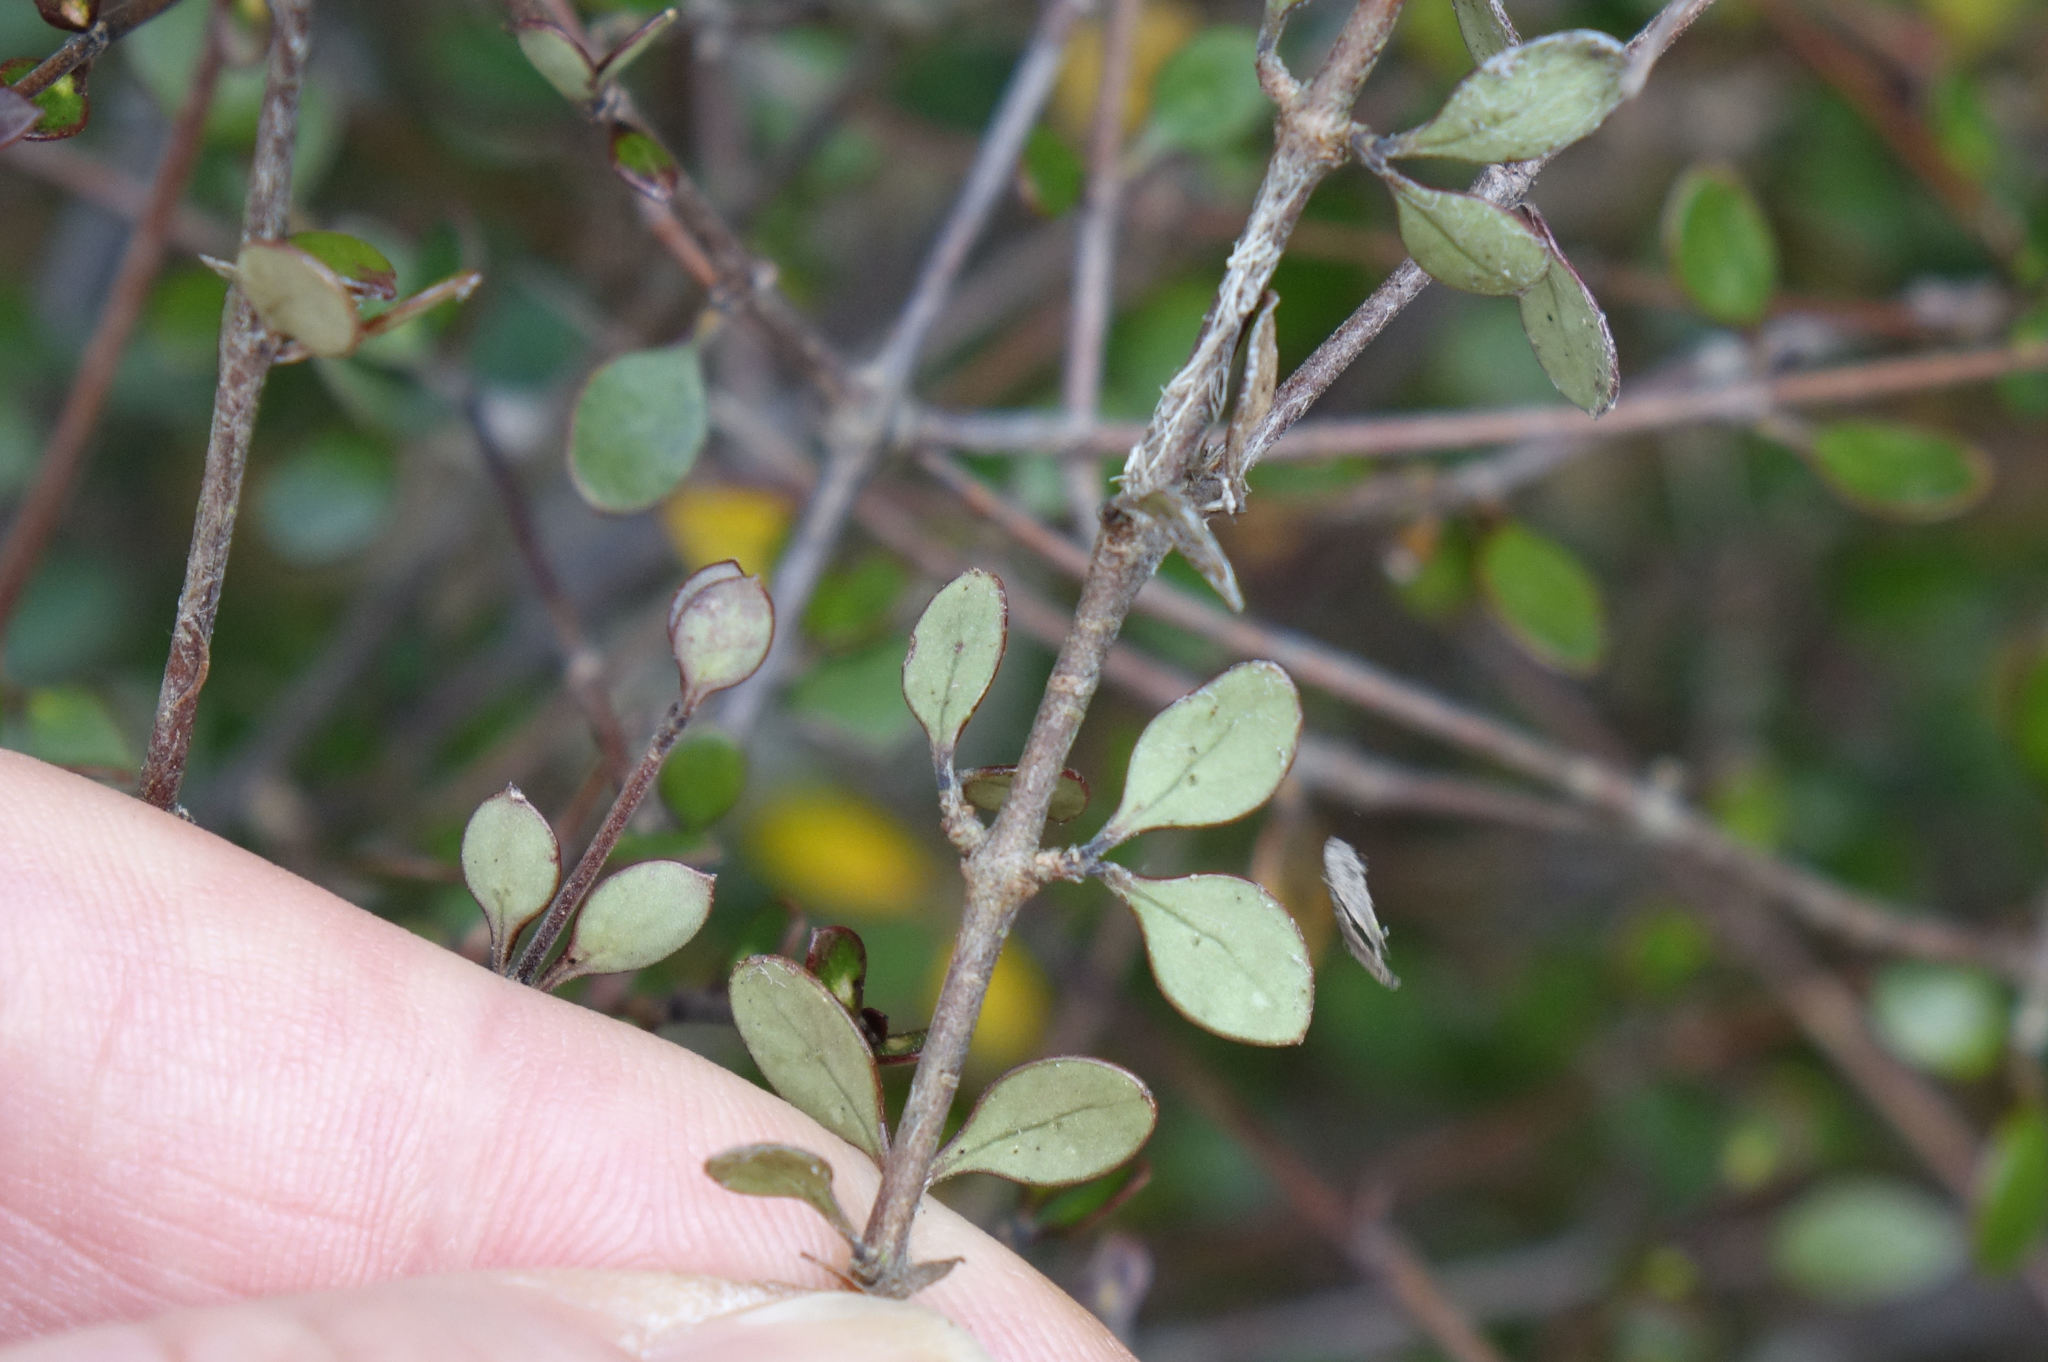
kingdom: Plantae
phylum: Tracheophyta
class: Magnoliopsida
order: Gentianales
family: Rubiaceae
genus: Coprosma
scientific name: Coprosma crassifolia
